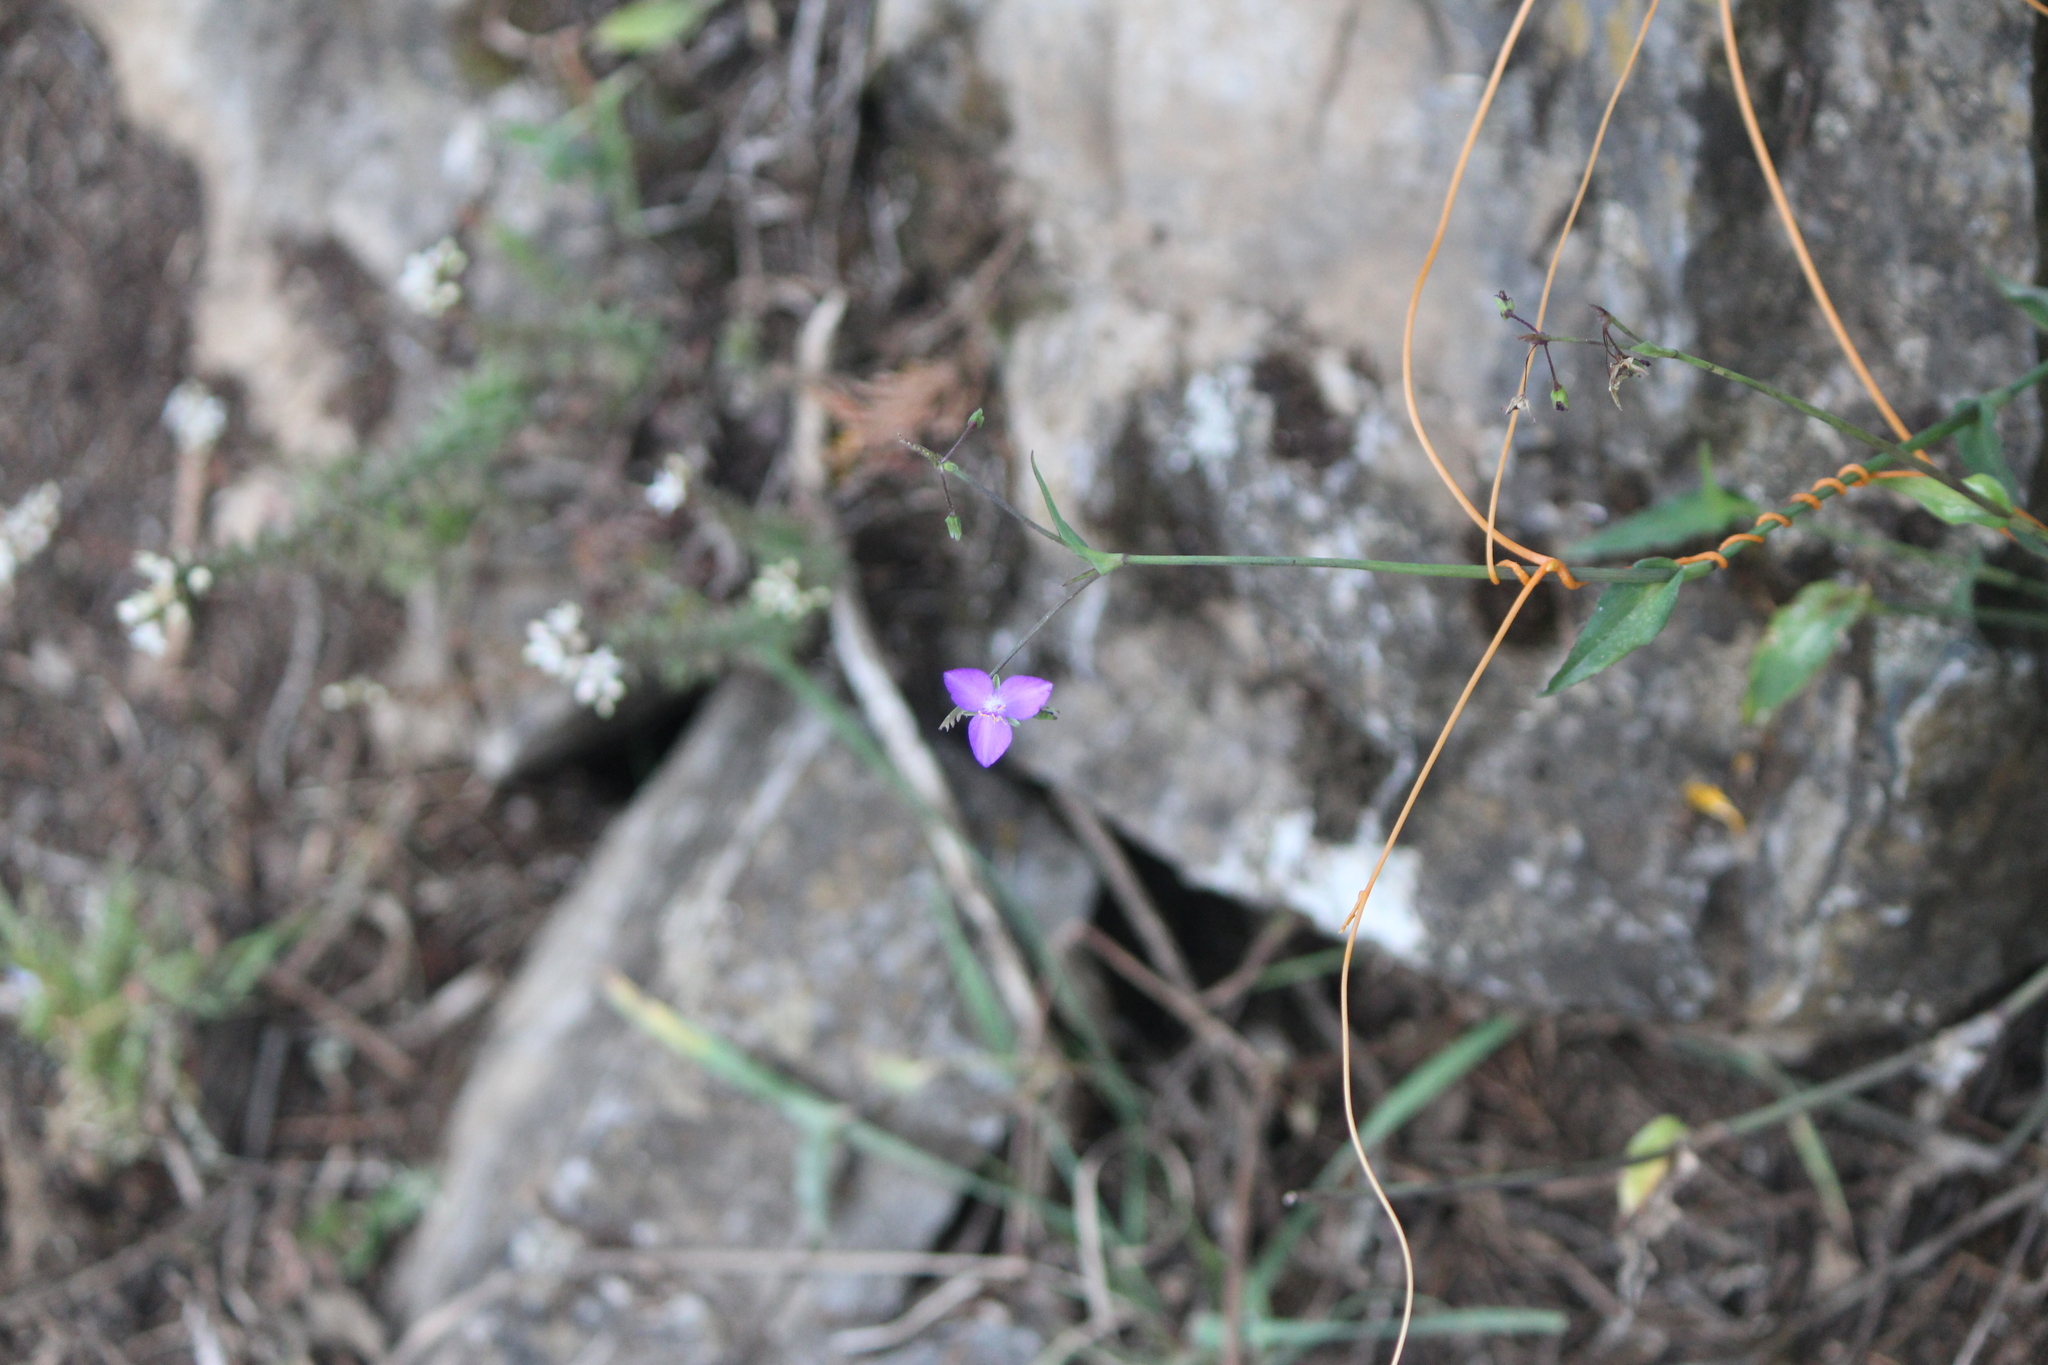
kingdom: Plantae
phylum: Tracheophyta
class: Liliopsida
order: Commelinales
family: Commelinaceae
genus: Gibasis
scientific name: Gibasis pulchella
